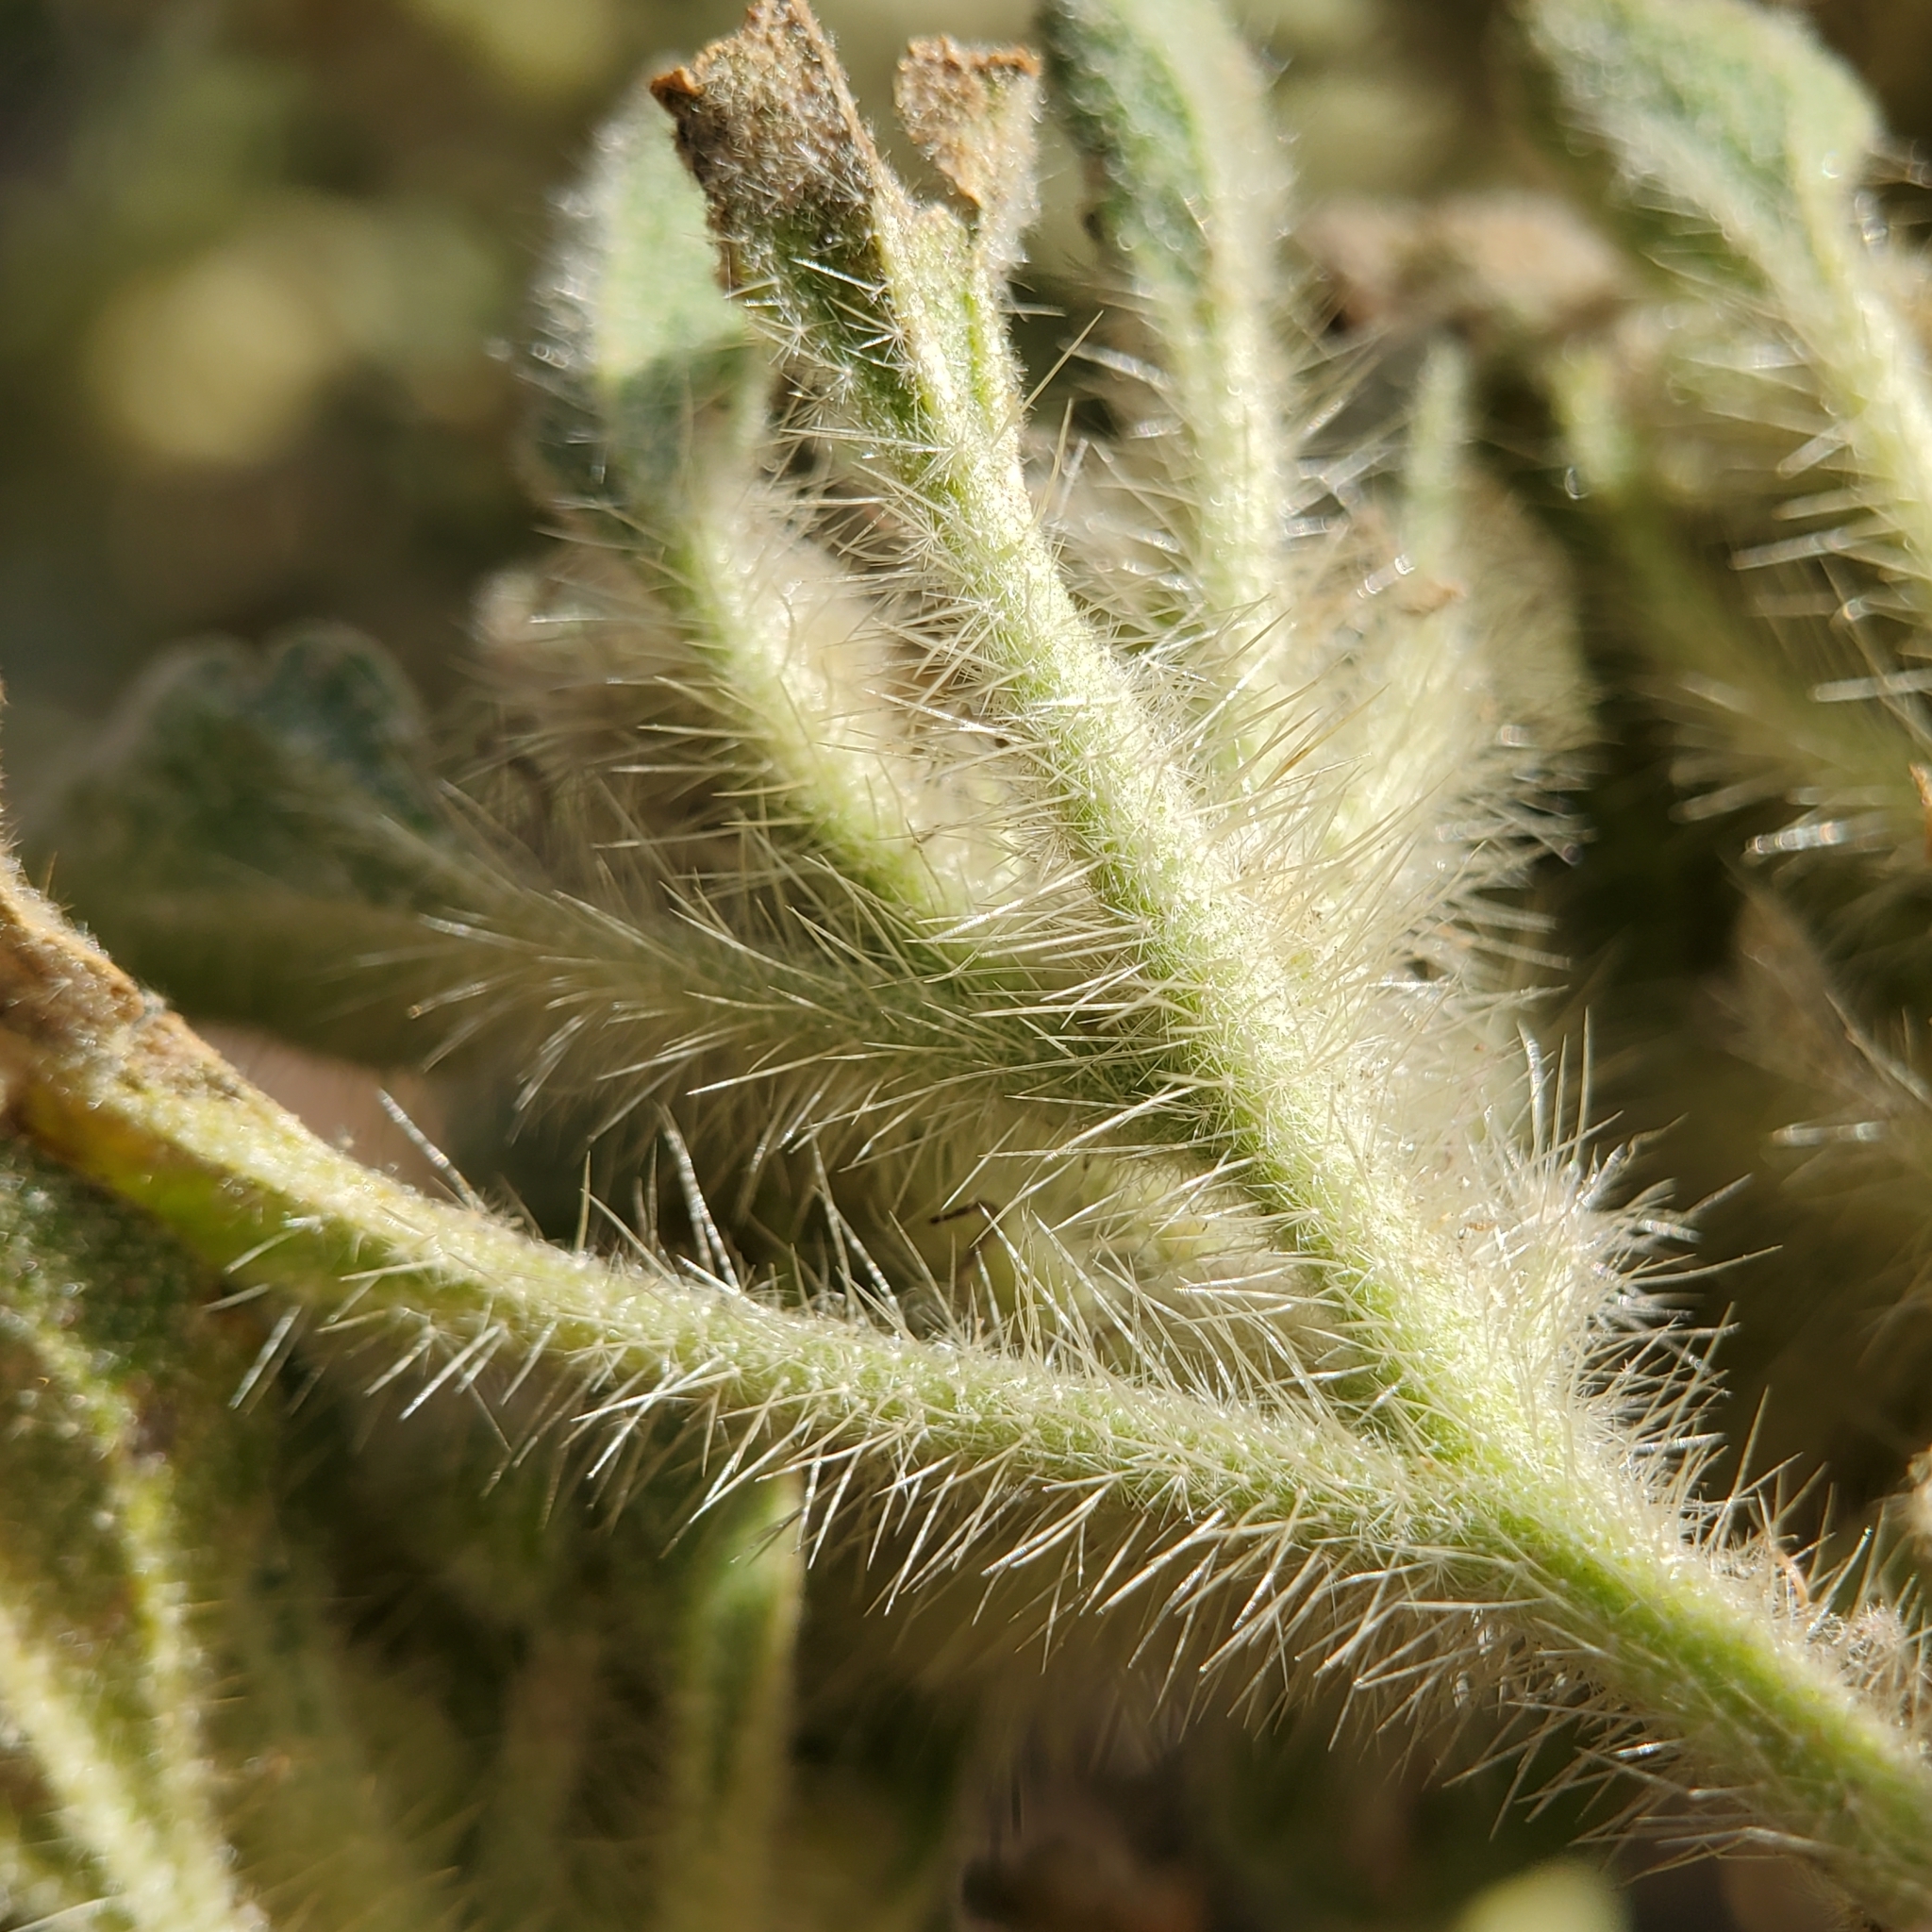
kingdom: Plantae
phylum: Tracheophyta
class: Magnoliopsida
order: Malpighiales
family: Euphorbiaceae
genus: Croton
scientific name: Croton setiger
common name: Dove weed
